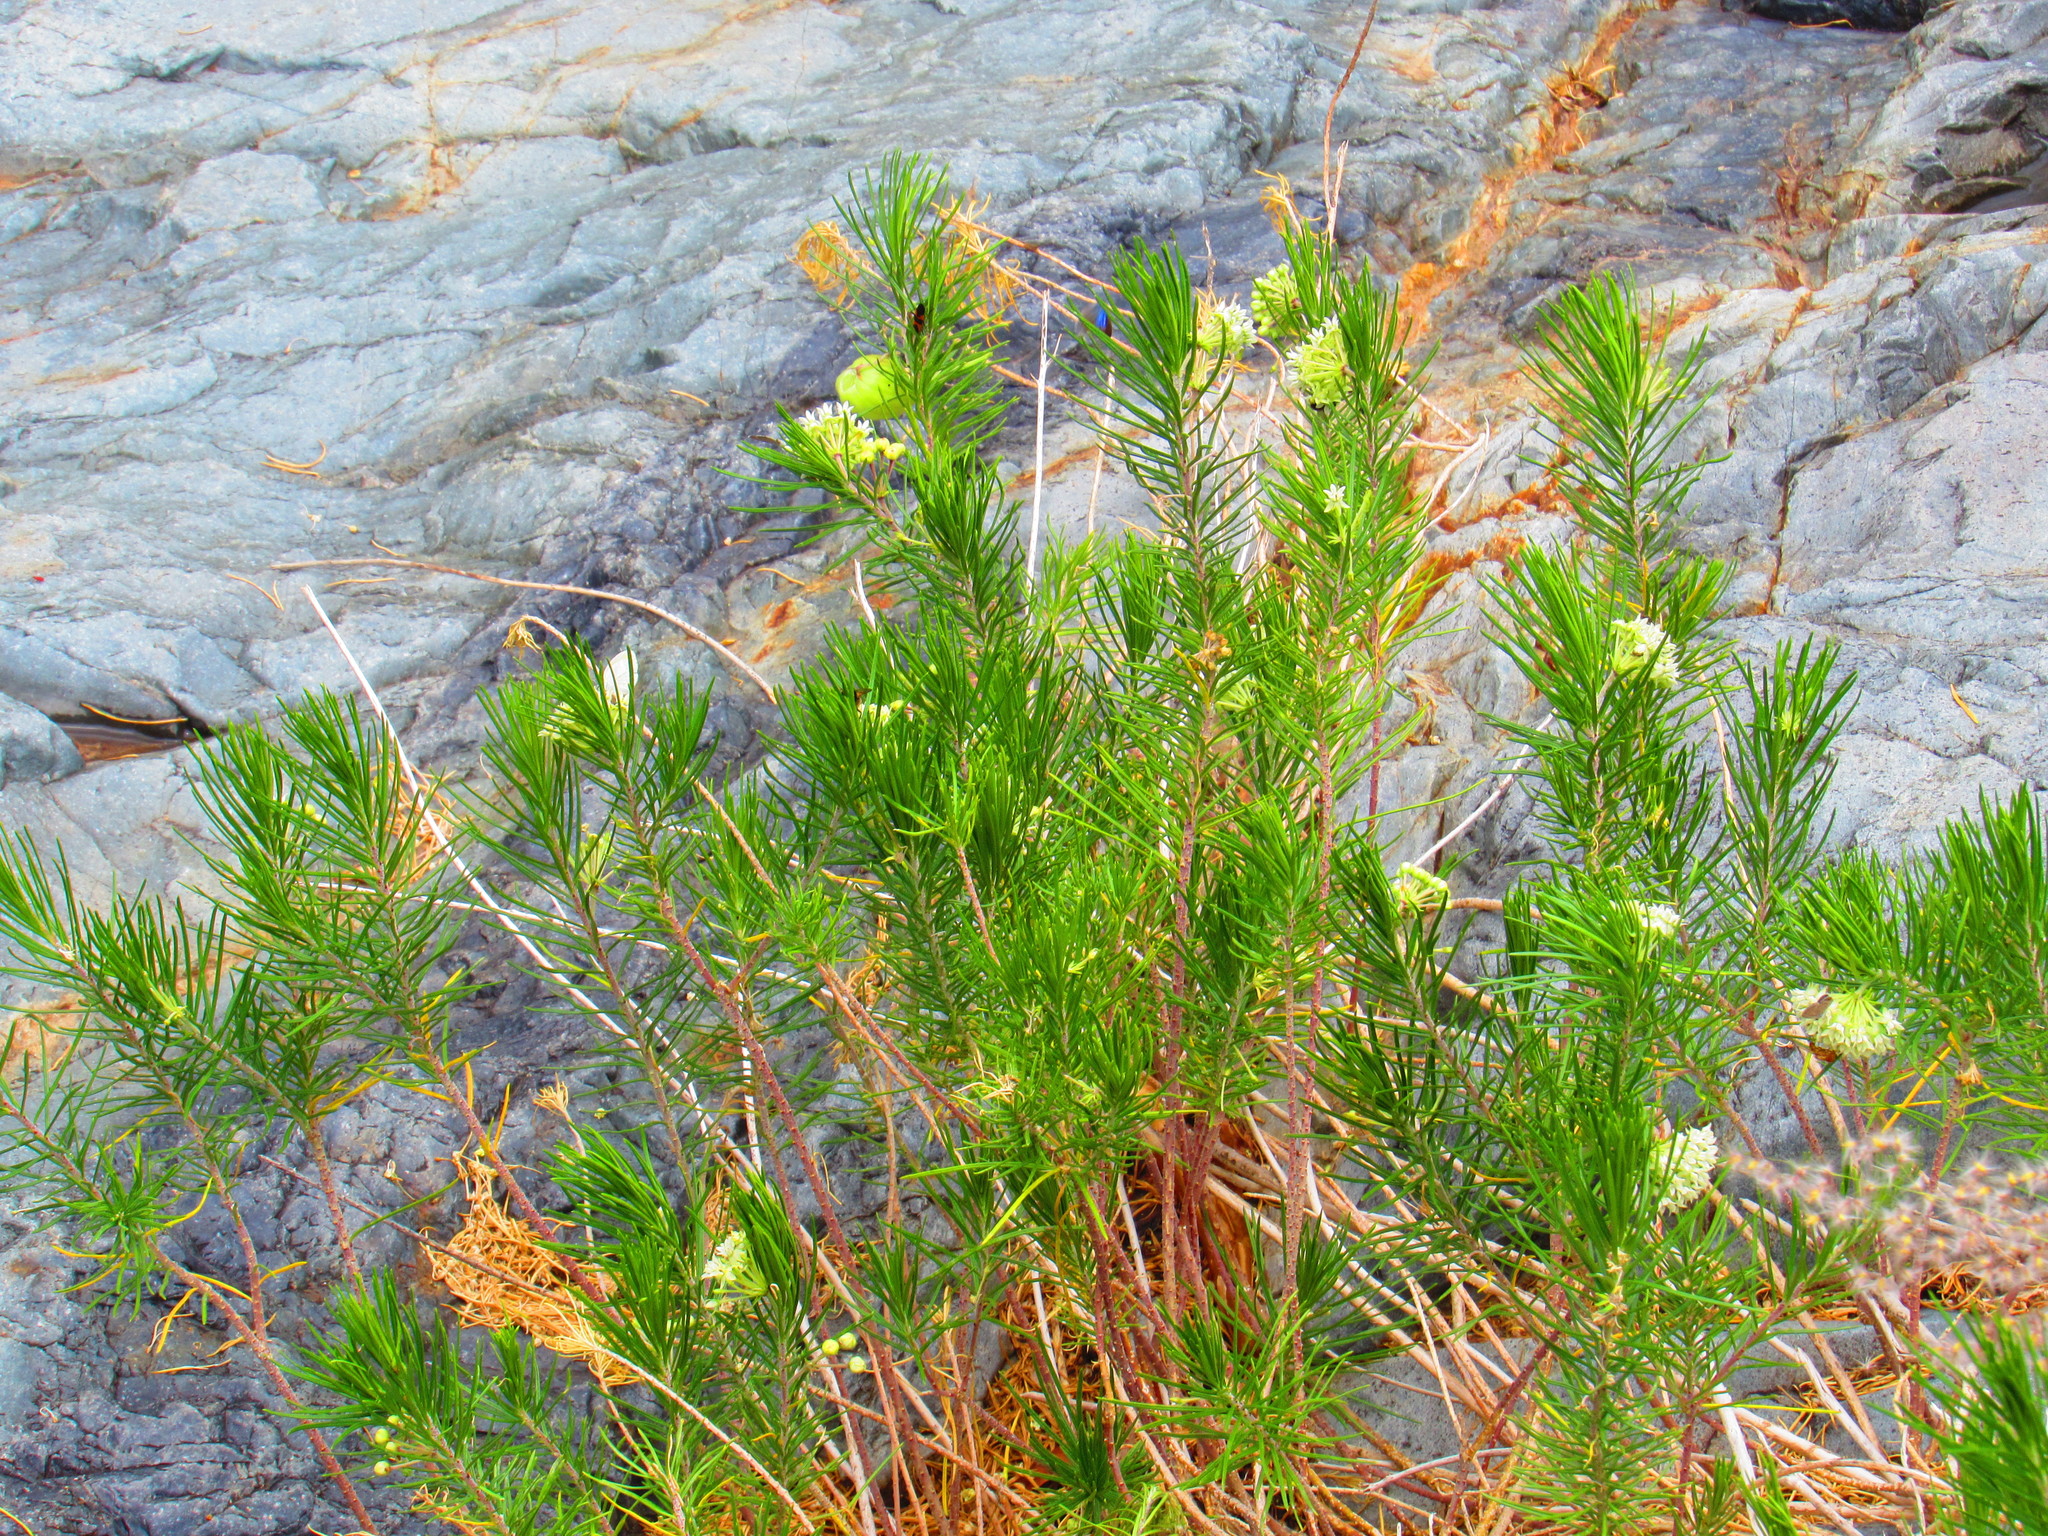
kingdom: Plantae
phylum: Tracheophyta
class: Magnoliopsida
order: Gentianales
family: Apocynaceae
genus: Asclepias
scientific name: Asclepias linaria
